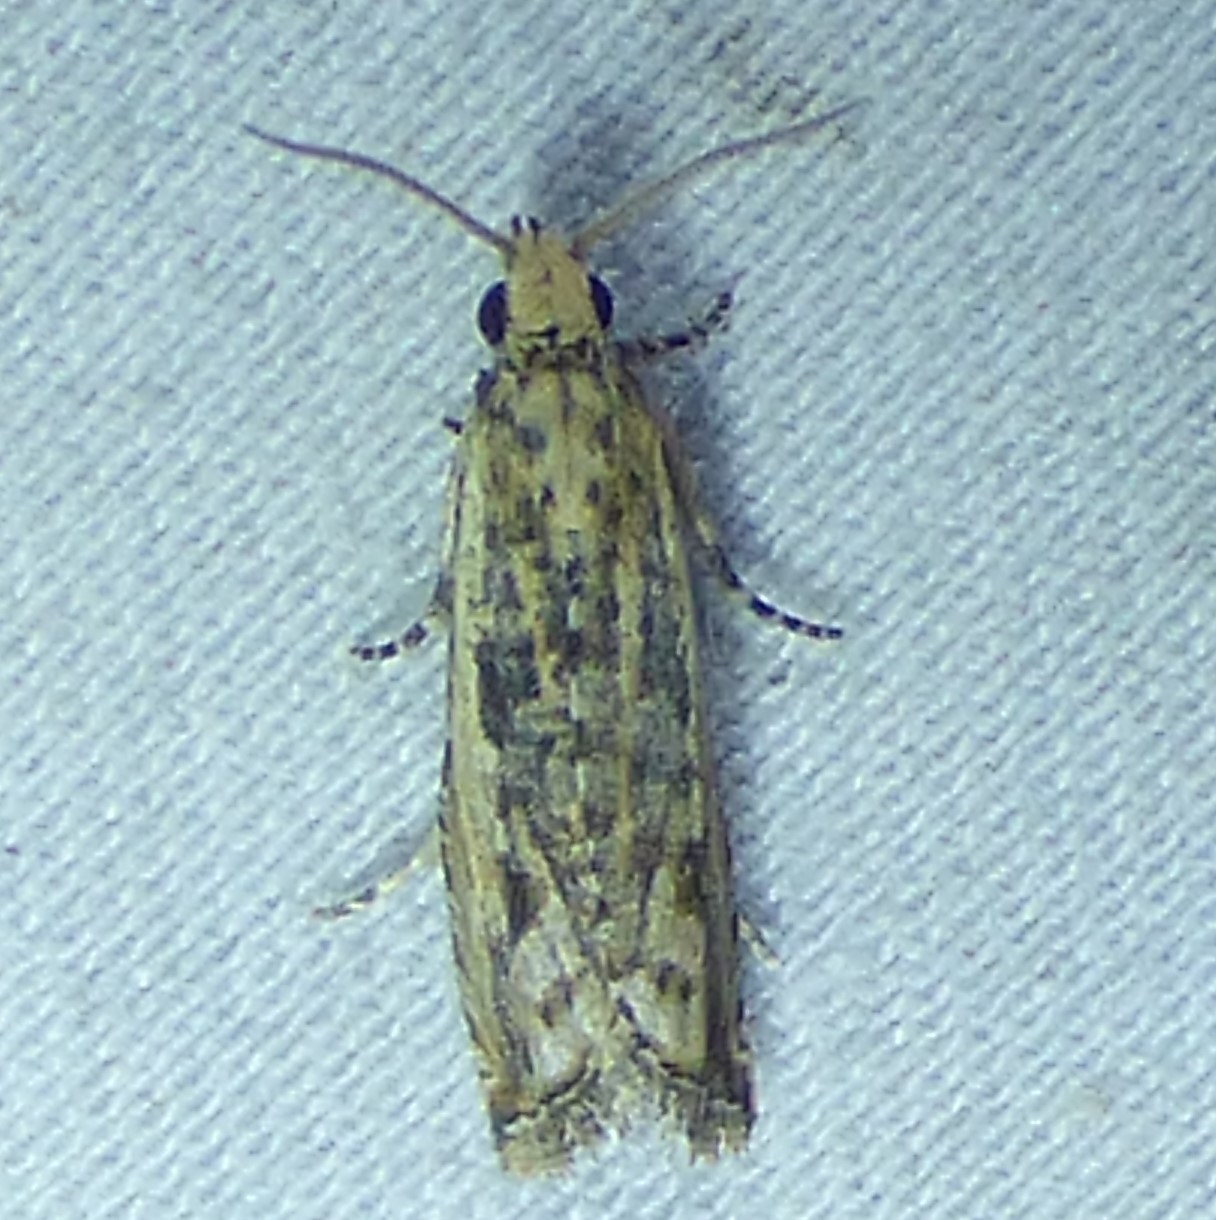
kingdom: Animalia
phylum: Arthropoda
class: Insecta
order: Lepidoptera
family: Tortricidae
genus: Bactra
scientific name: Bactra verutana
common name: Javelin moth
